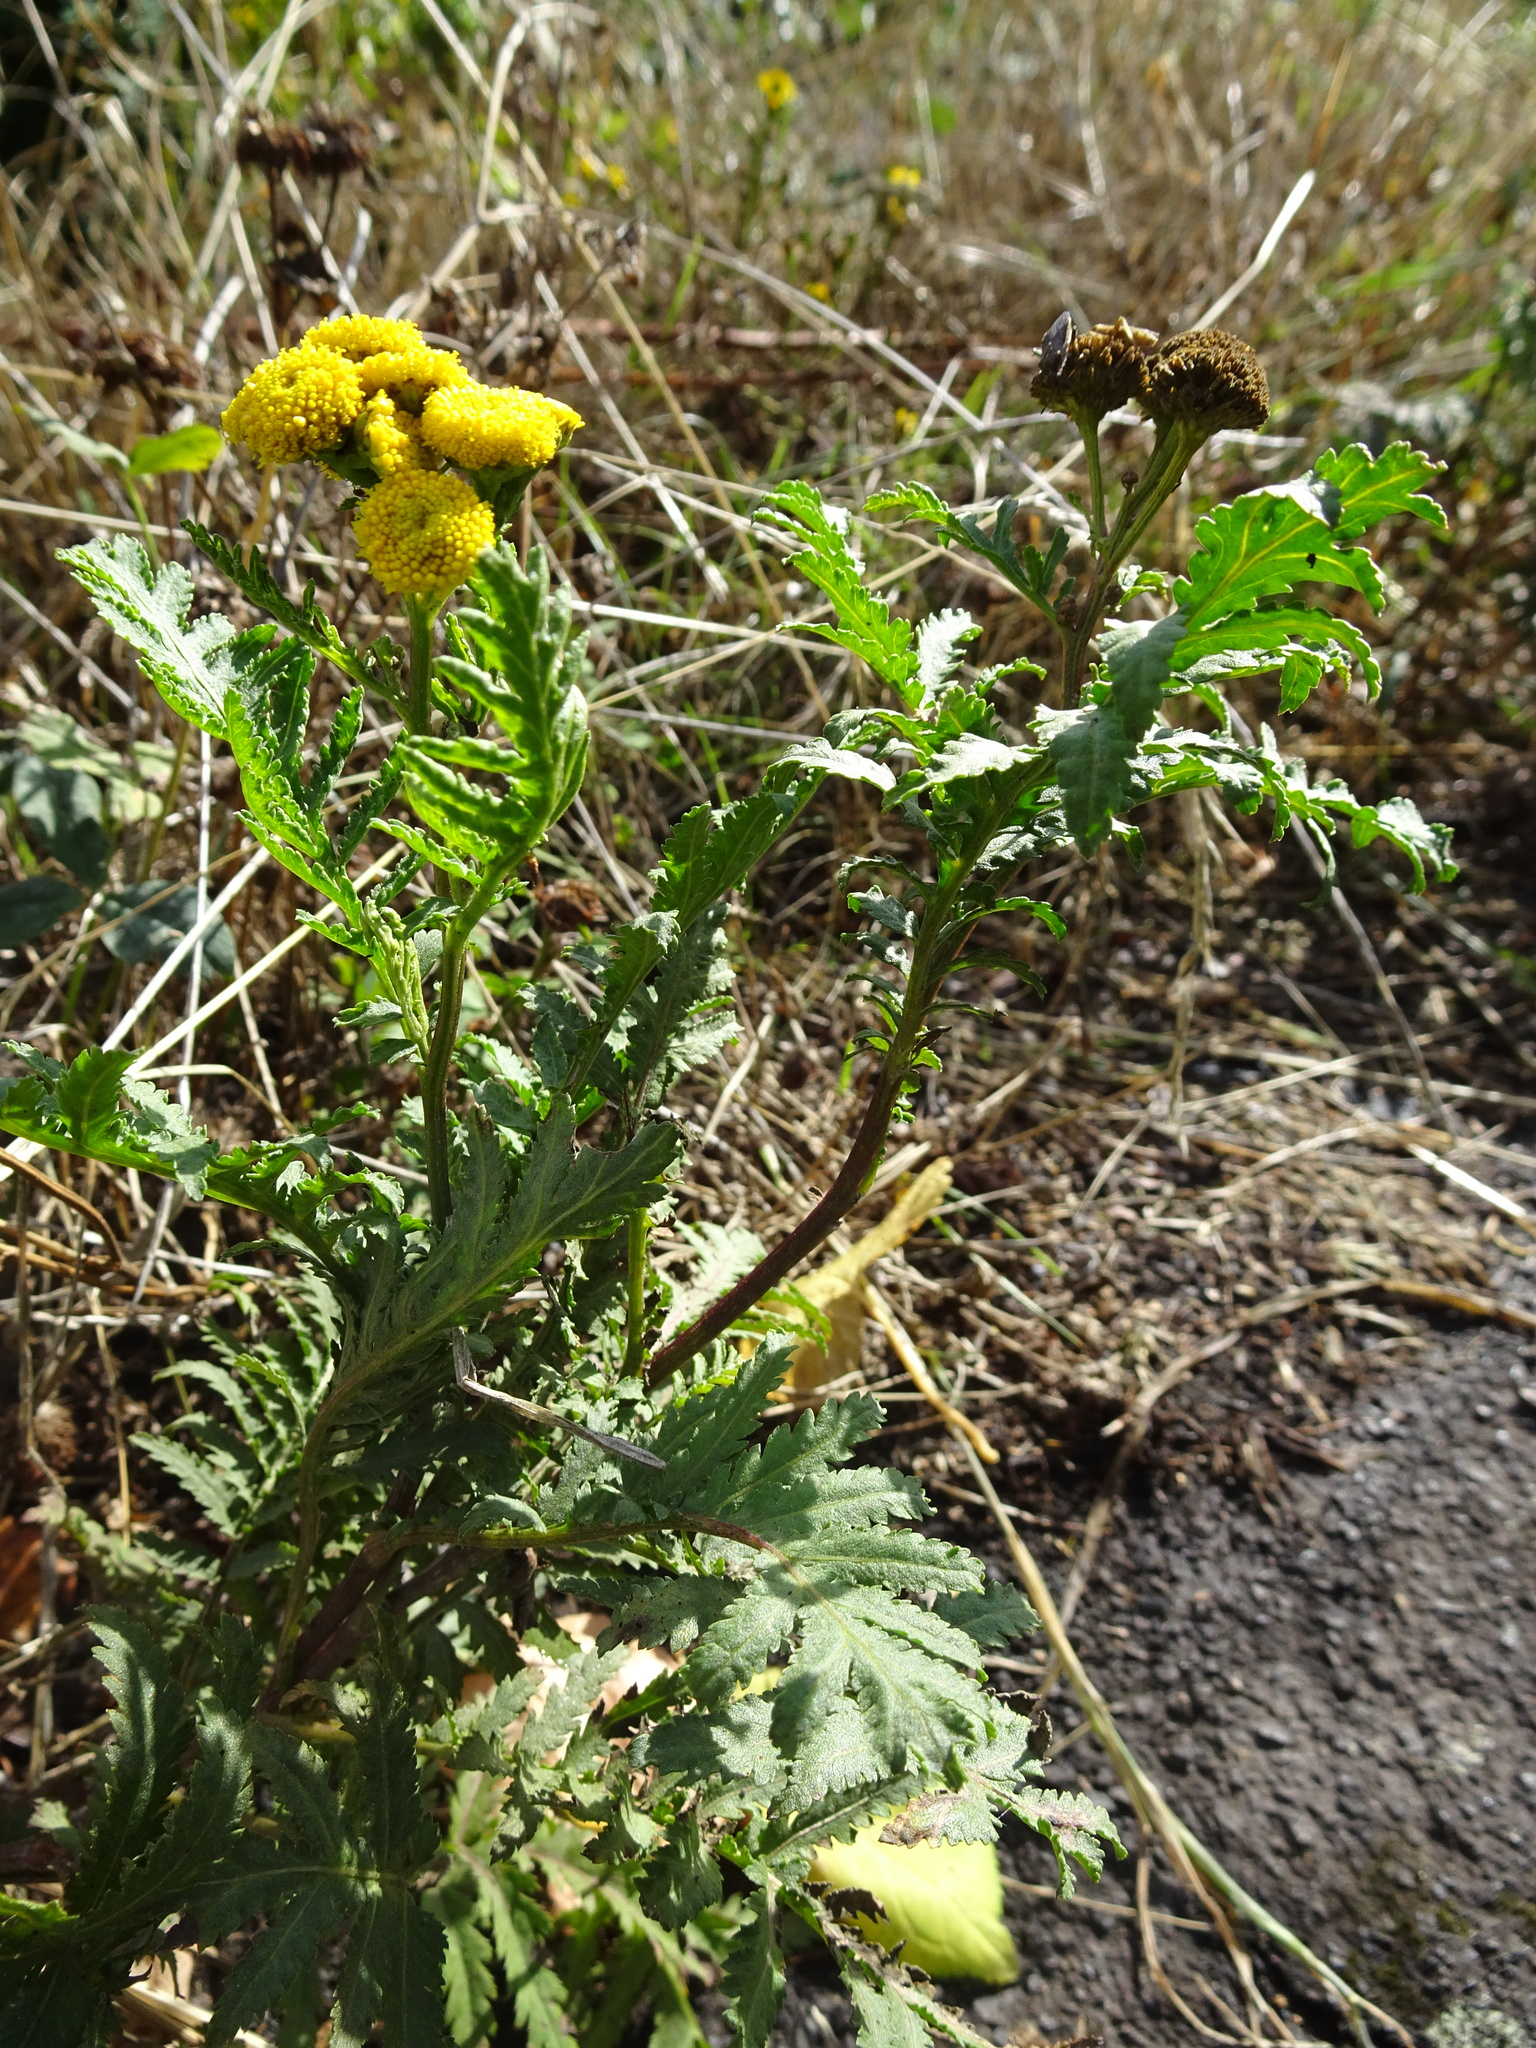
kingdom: Plantae
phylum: Tracheophyta
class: Magnoliopsida
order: Asterales
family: Asteraceae
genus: Tanacetum
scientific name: Tanacetum vulgare
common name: Common tansy
